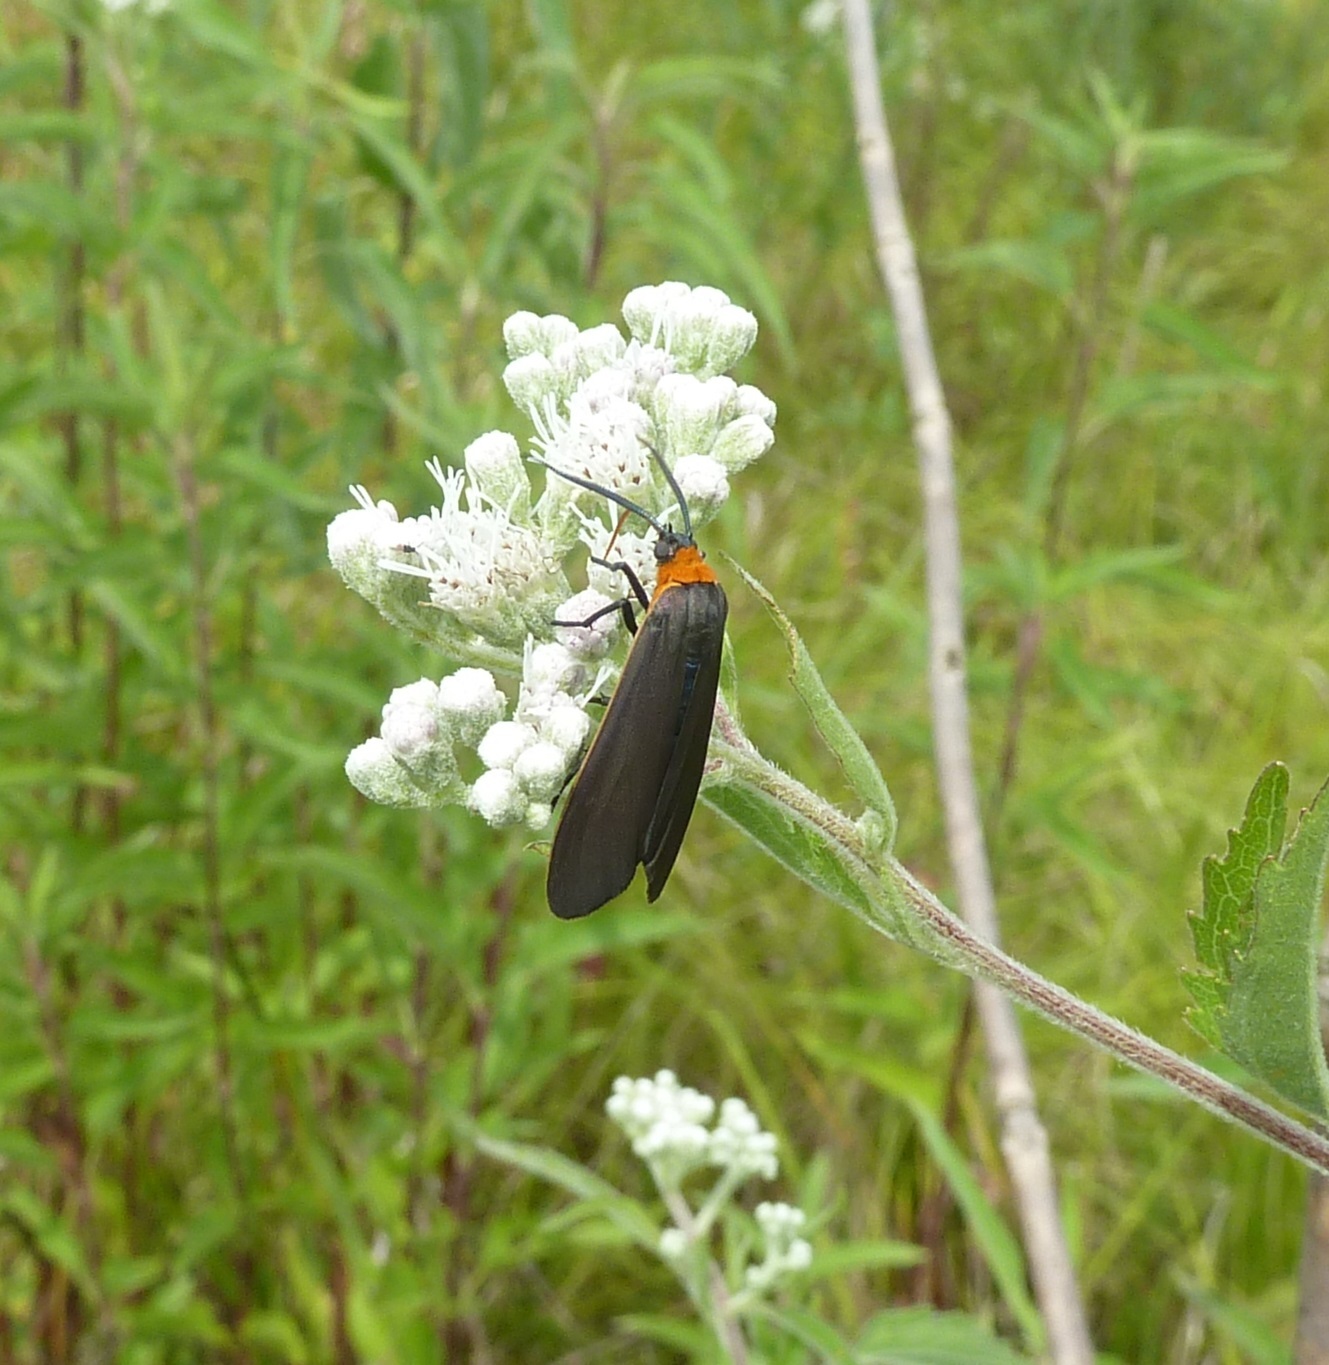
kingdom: Animalia
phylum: Arthropoda
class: Insecta
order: Lepidoptera
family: Erebidae
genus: Cisseps
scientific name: Cisseps fulvicollis
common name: Yellow-collared scape moth
